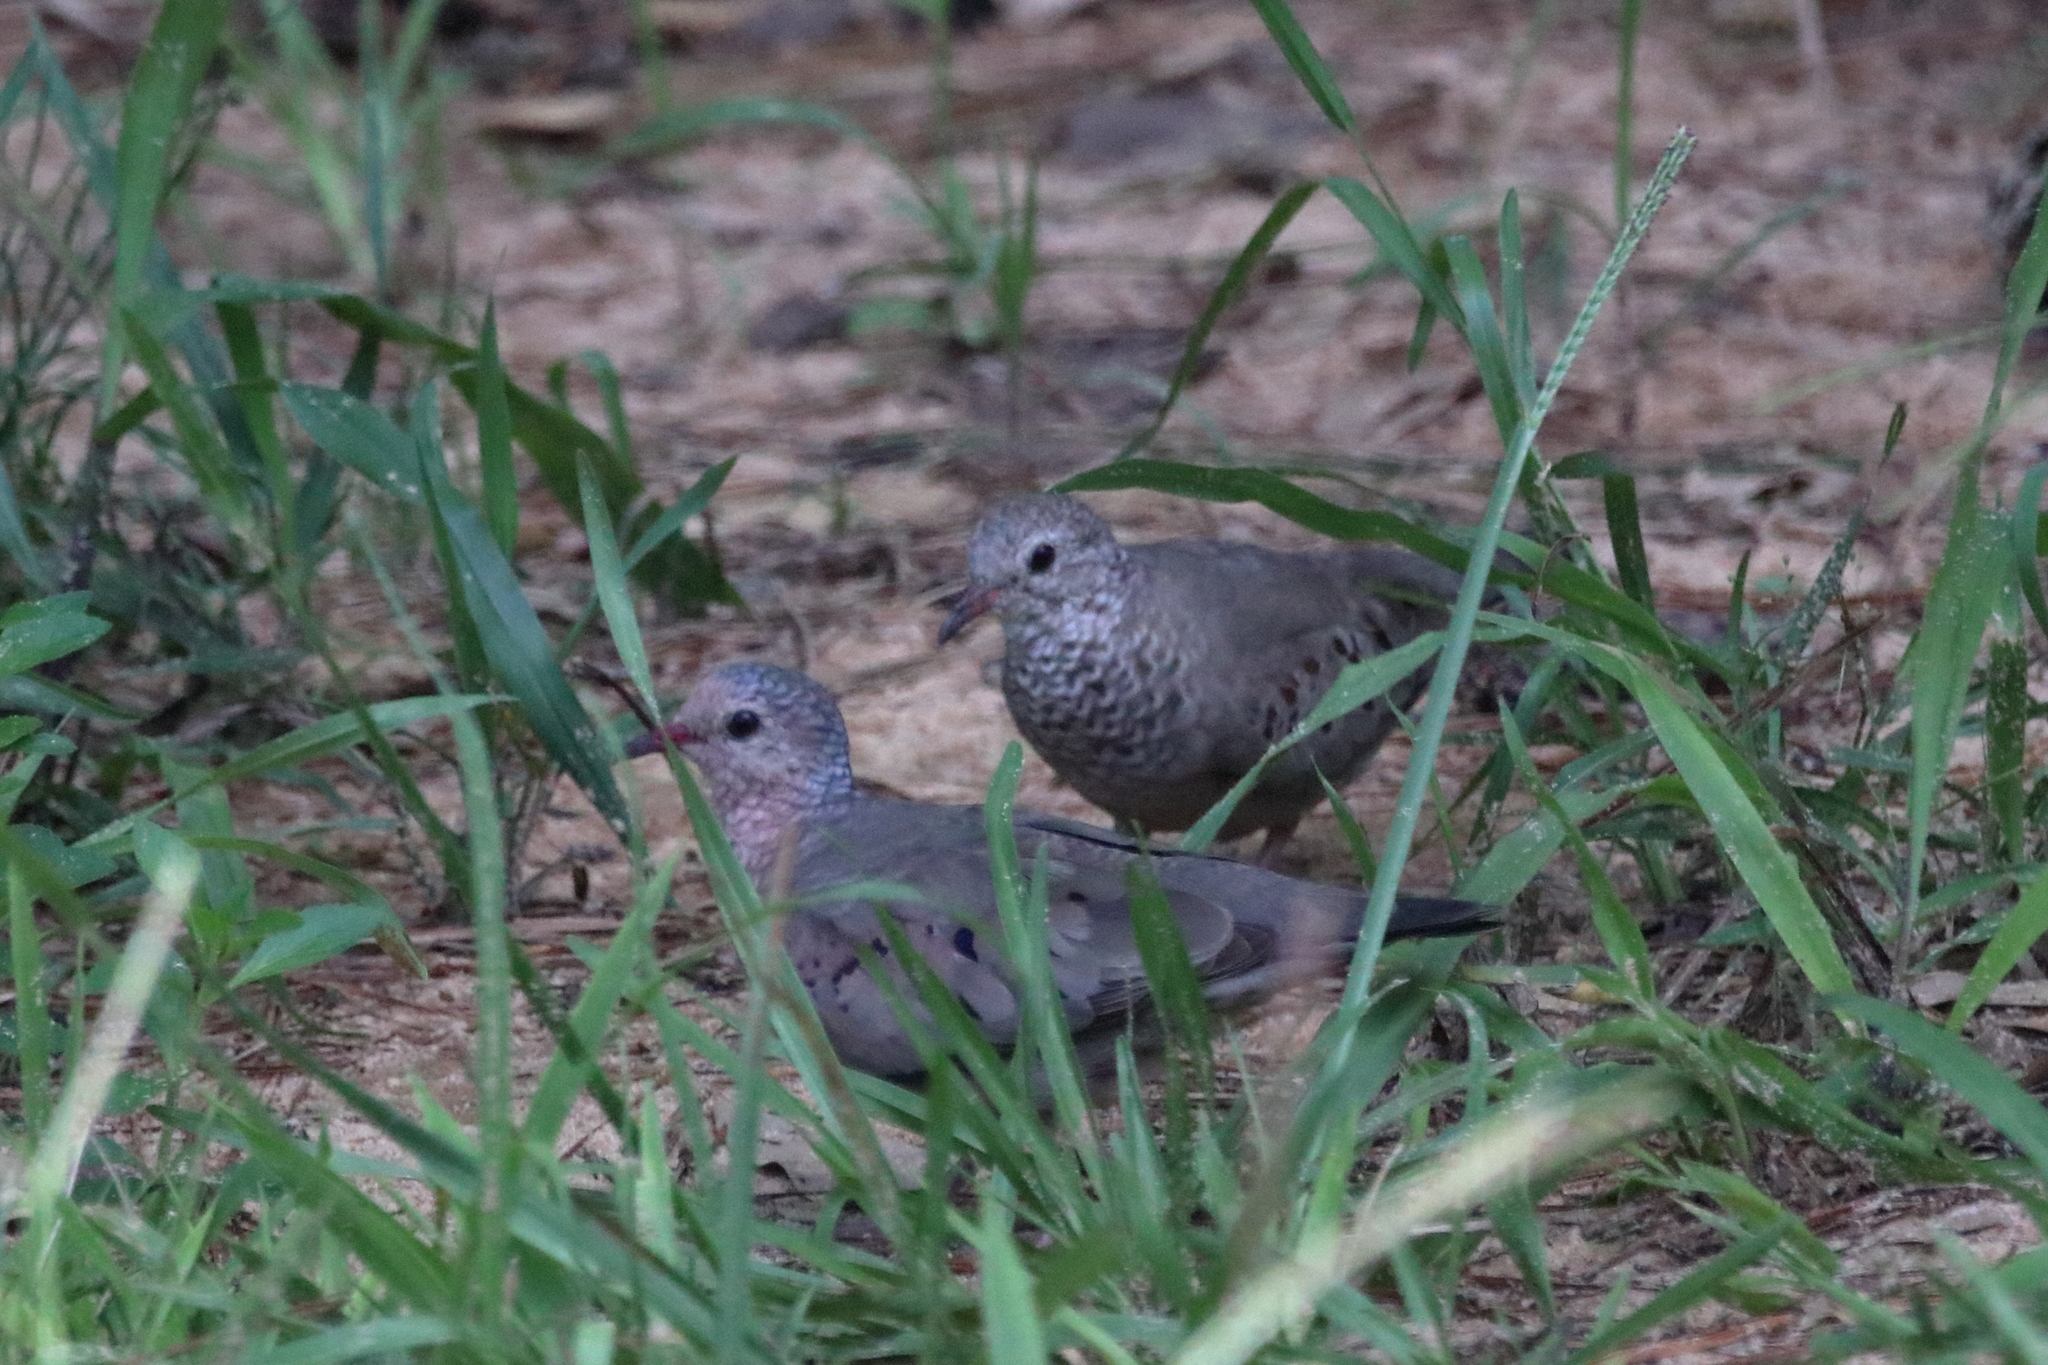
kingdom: Animalia
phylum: Chordata
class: Aves
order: Columbiformes
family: Columbidae
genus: Columbina
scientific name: Columbina passerina
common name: Common ground-dove
